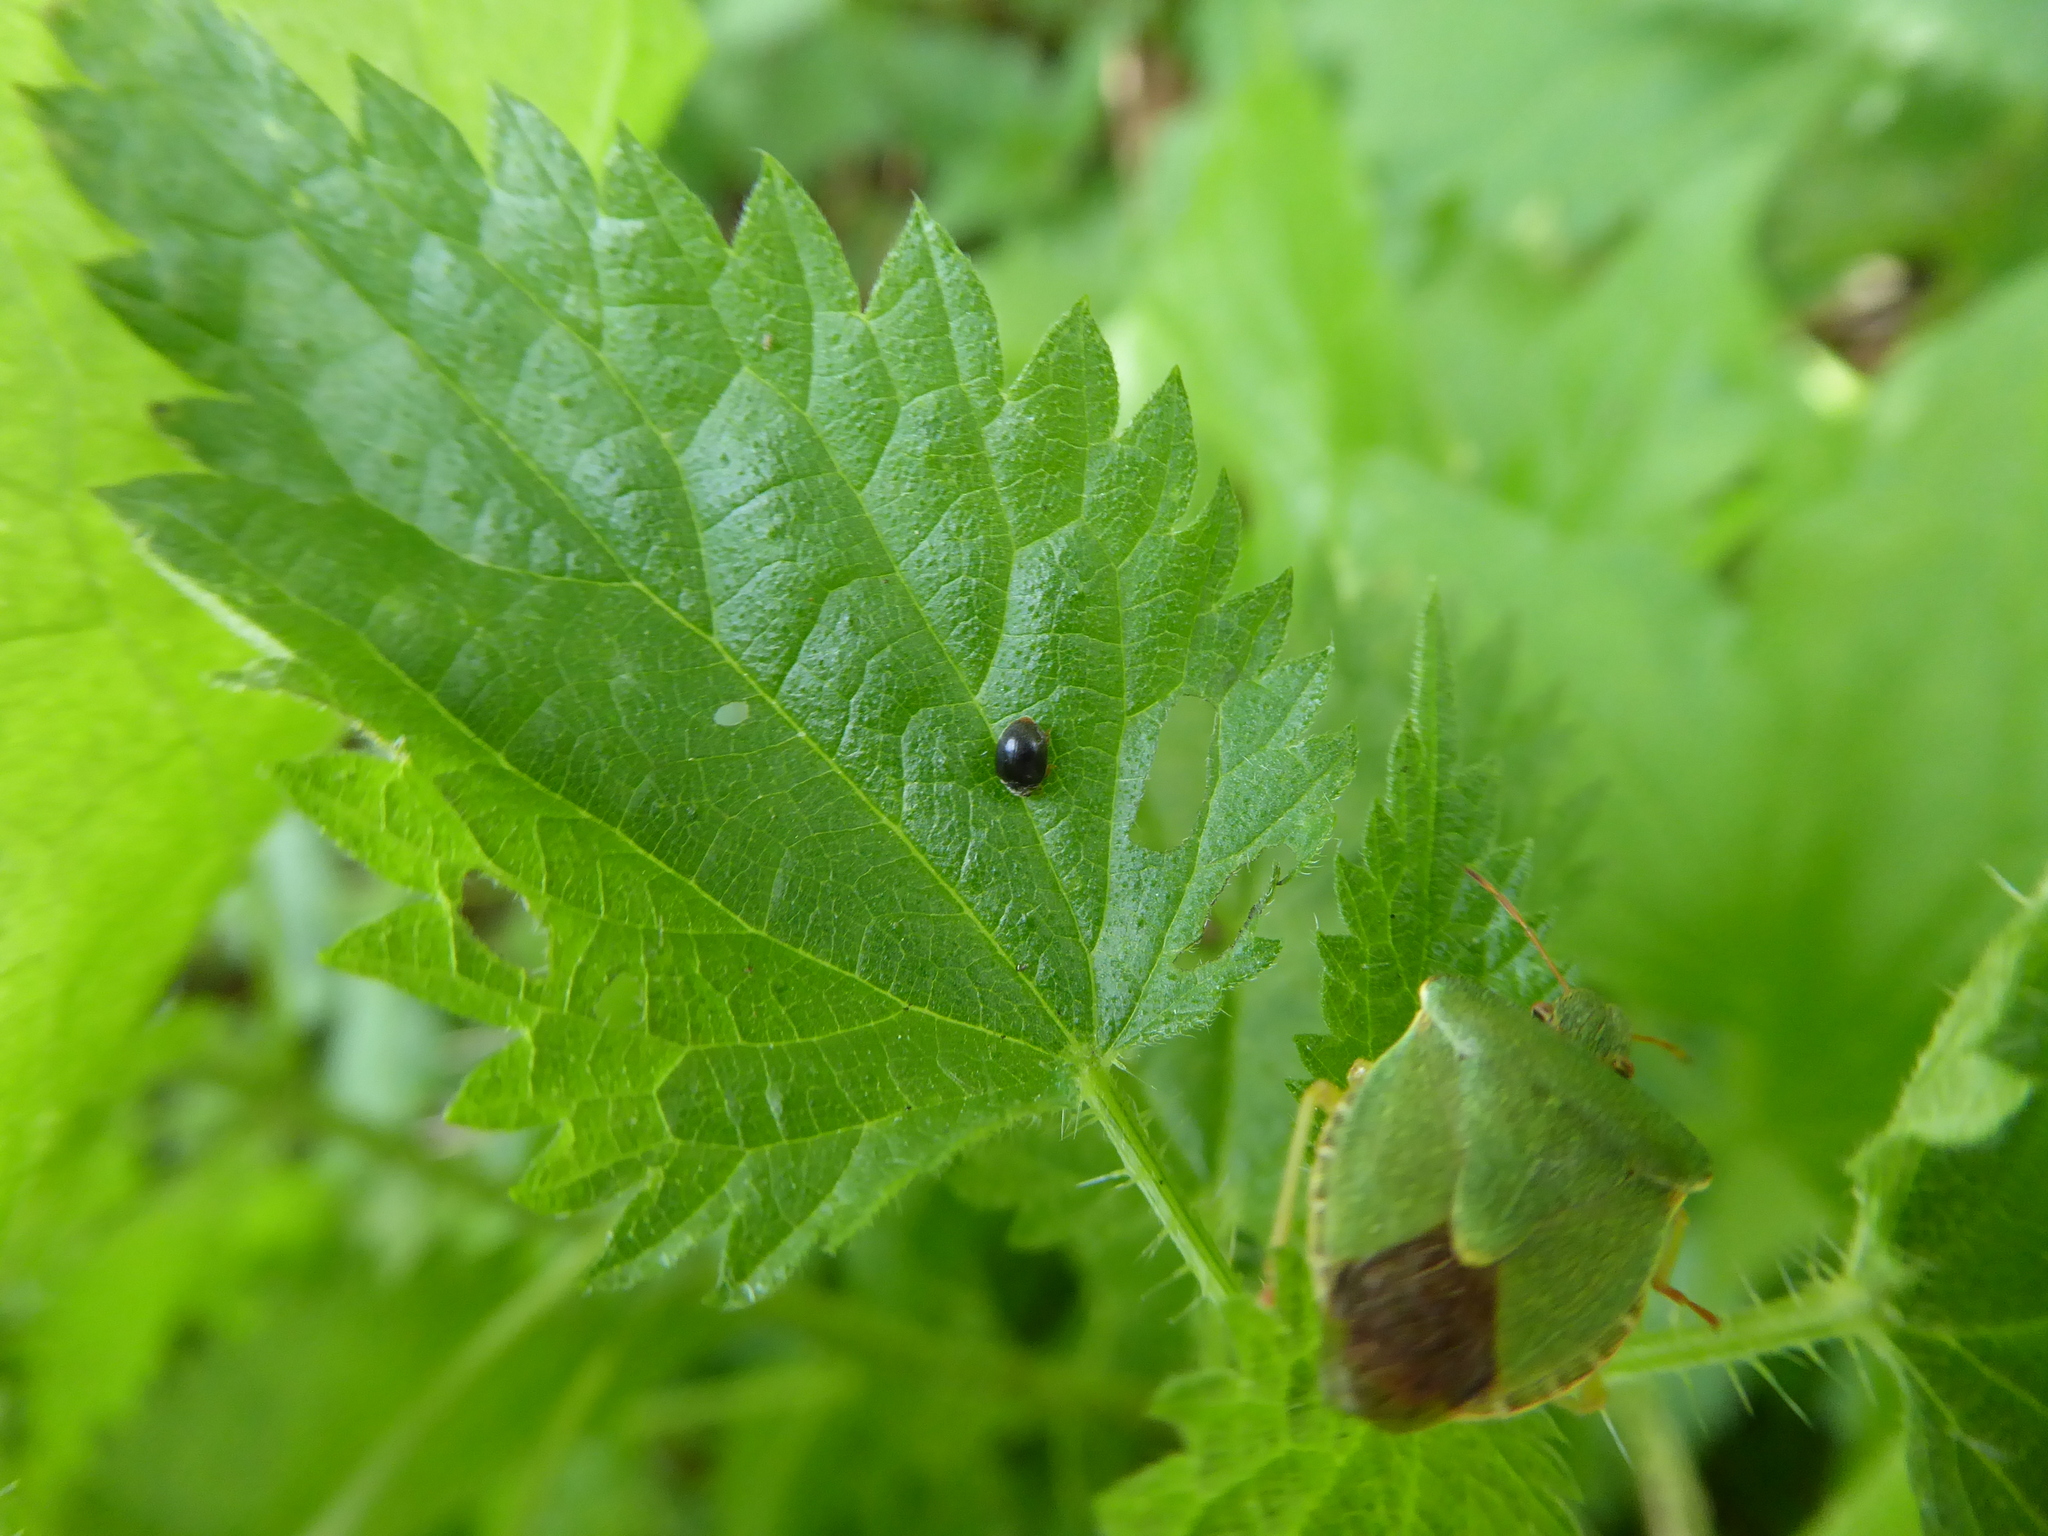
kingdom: Animalia
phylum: Arthropoda
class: Insecta
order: Coleoptera
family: Coccinellidae
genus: Scymnus
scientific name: Scymnus auritus
